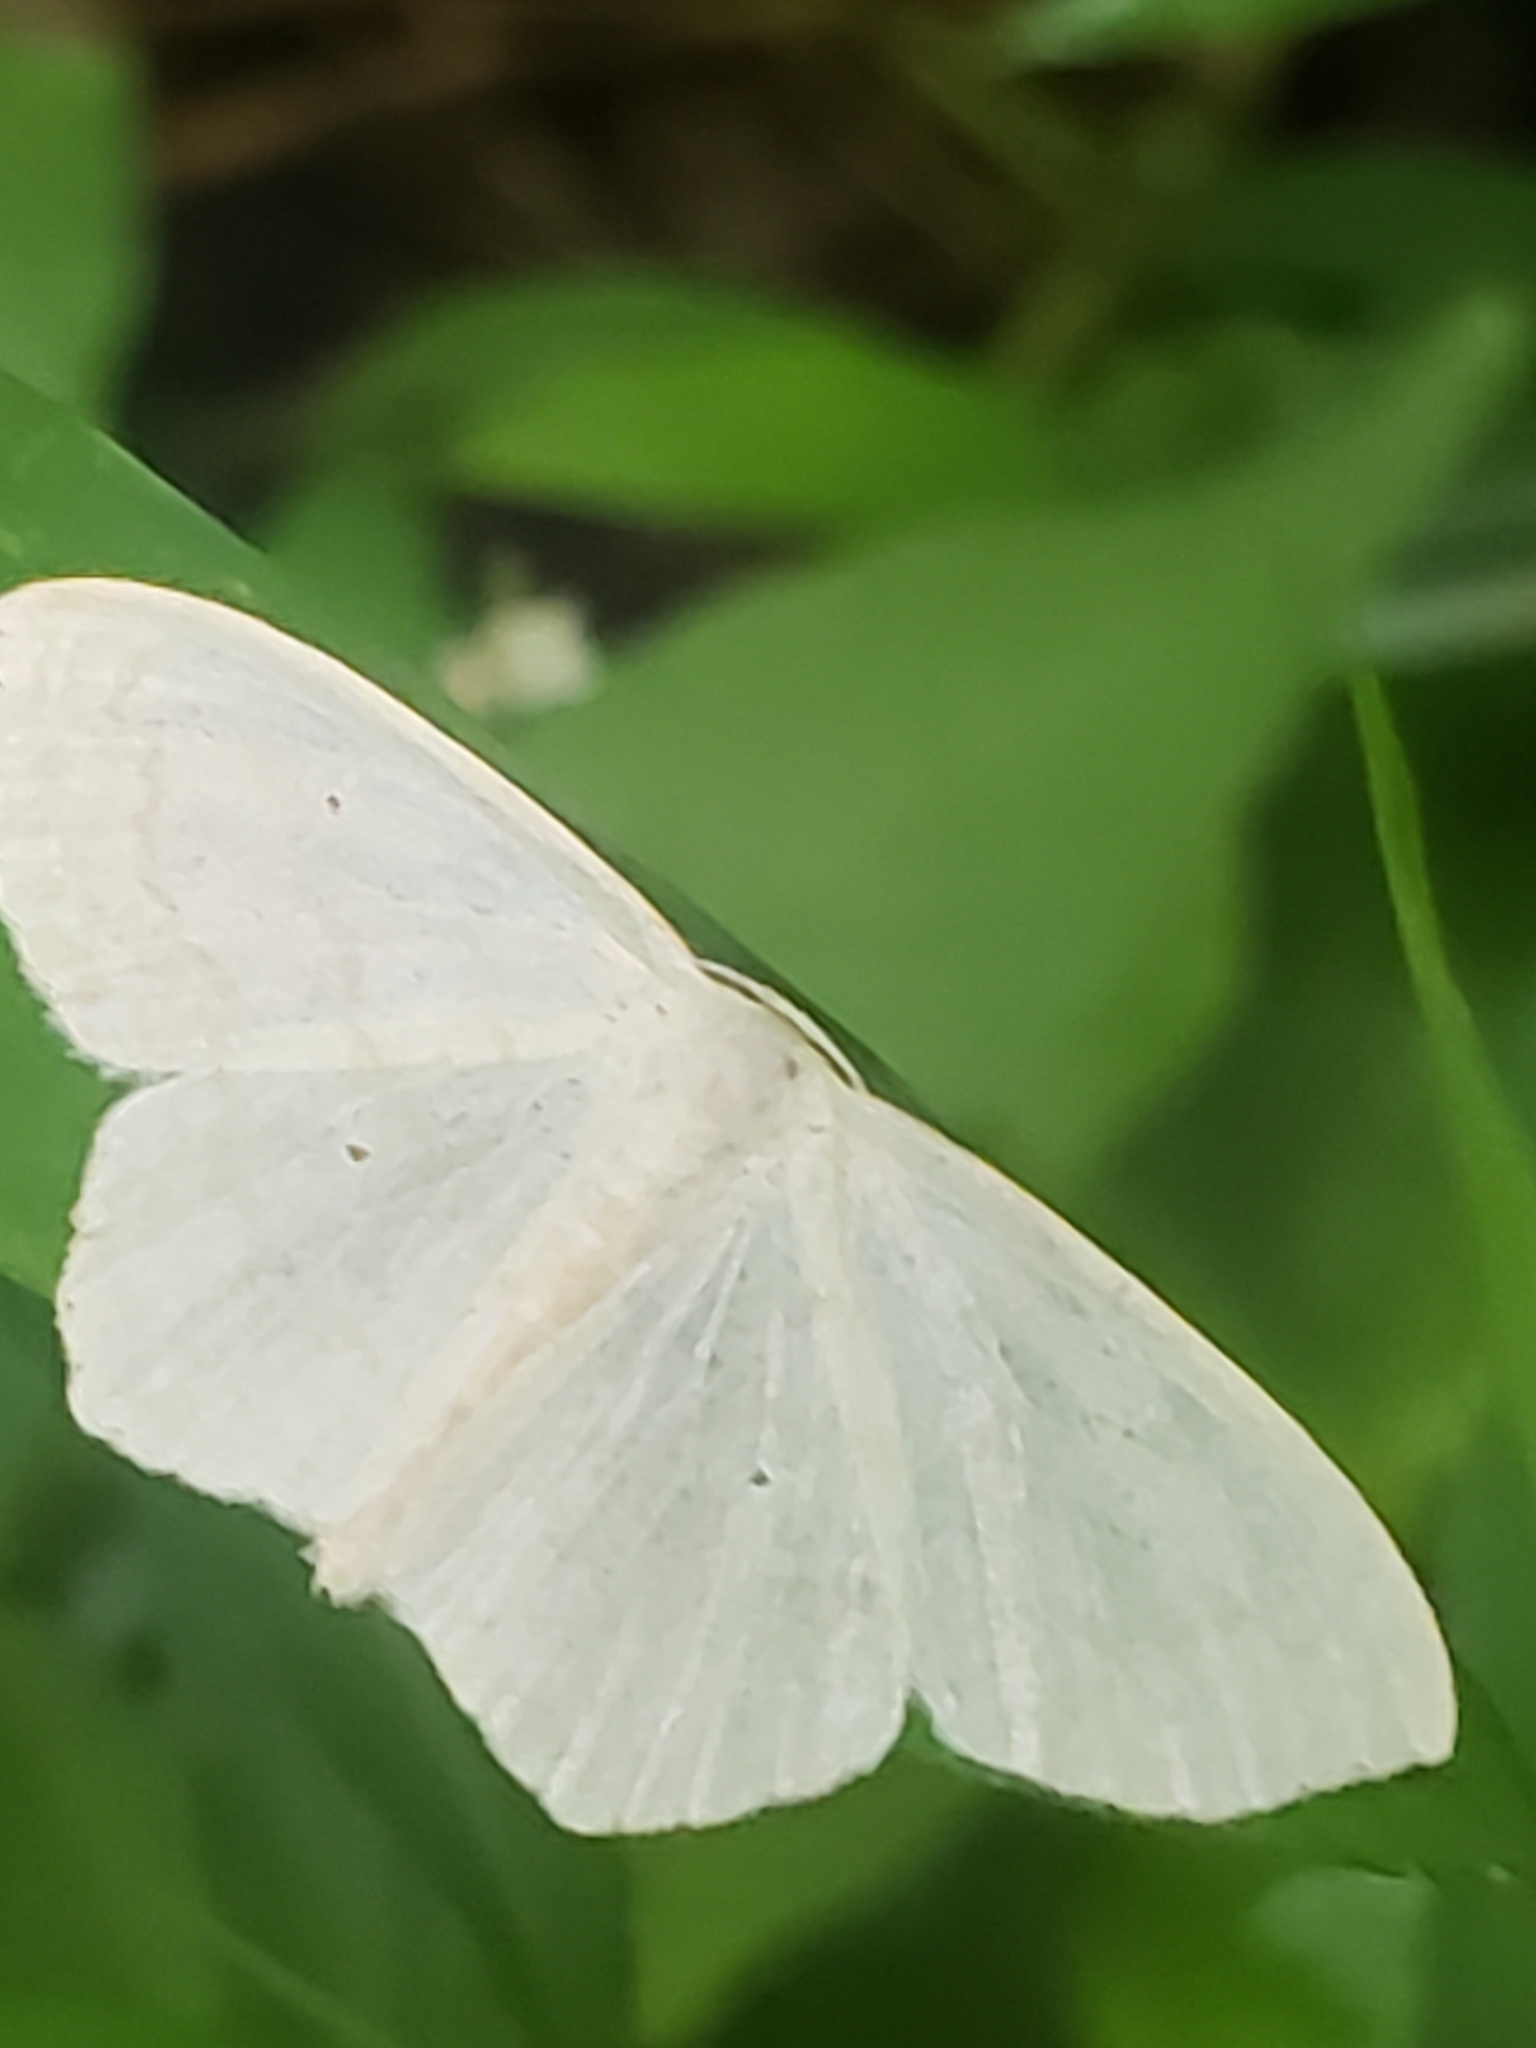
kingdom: Animalia
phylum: Arthropoda
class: Insecta
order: Lepidoptera
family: Geometridae
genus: Scopula
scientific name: Scopula limboundata
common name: Large lace border
